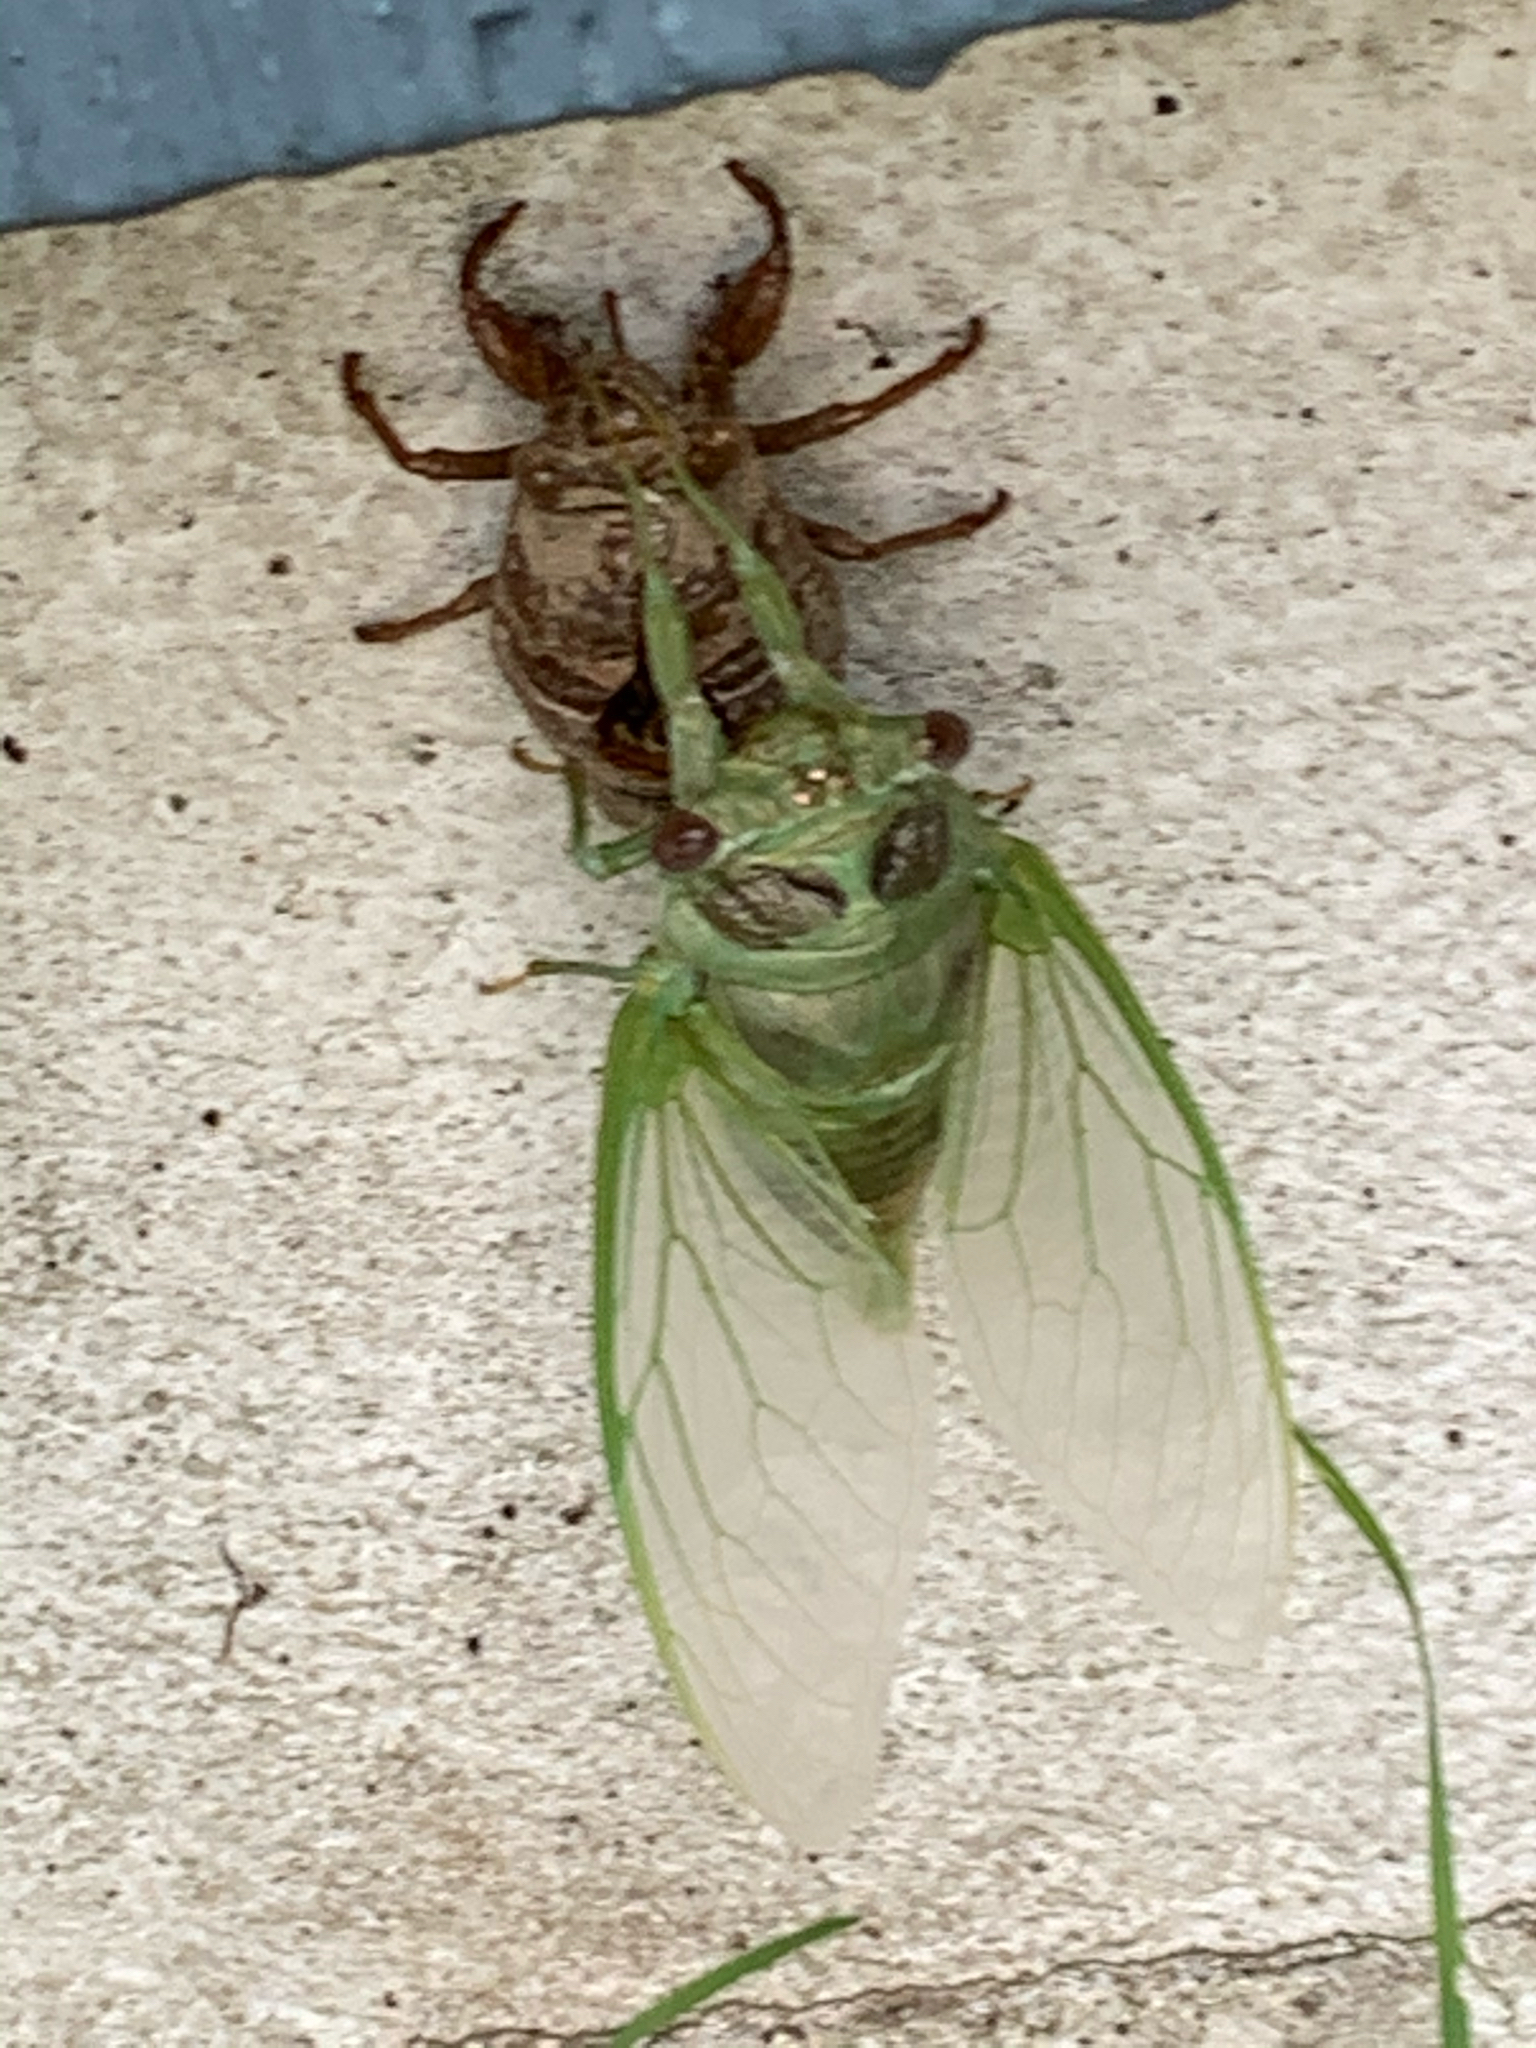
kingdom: Animalia
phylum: Arthropoda
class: Insecta
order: Hemiptera
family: Cicadidae
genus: Diceroprocta
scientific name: Diceroprocta grossa
